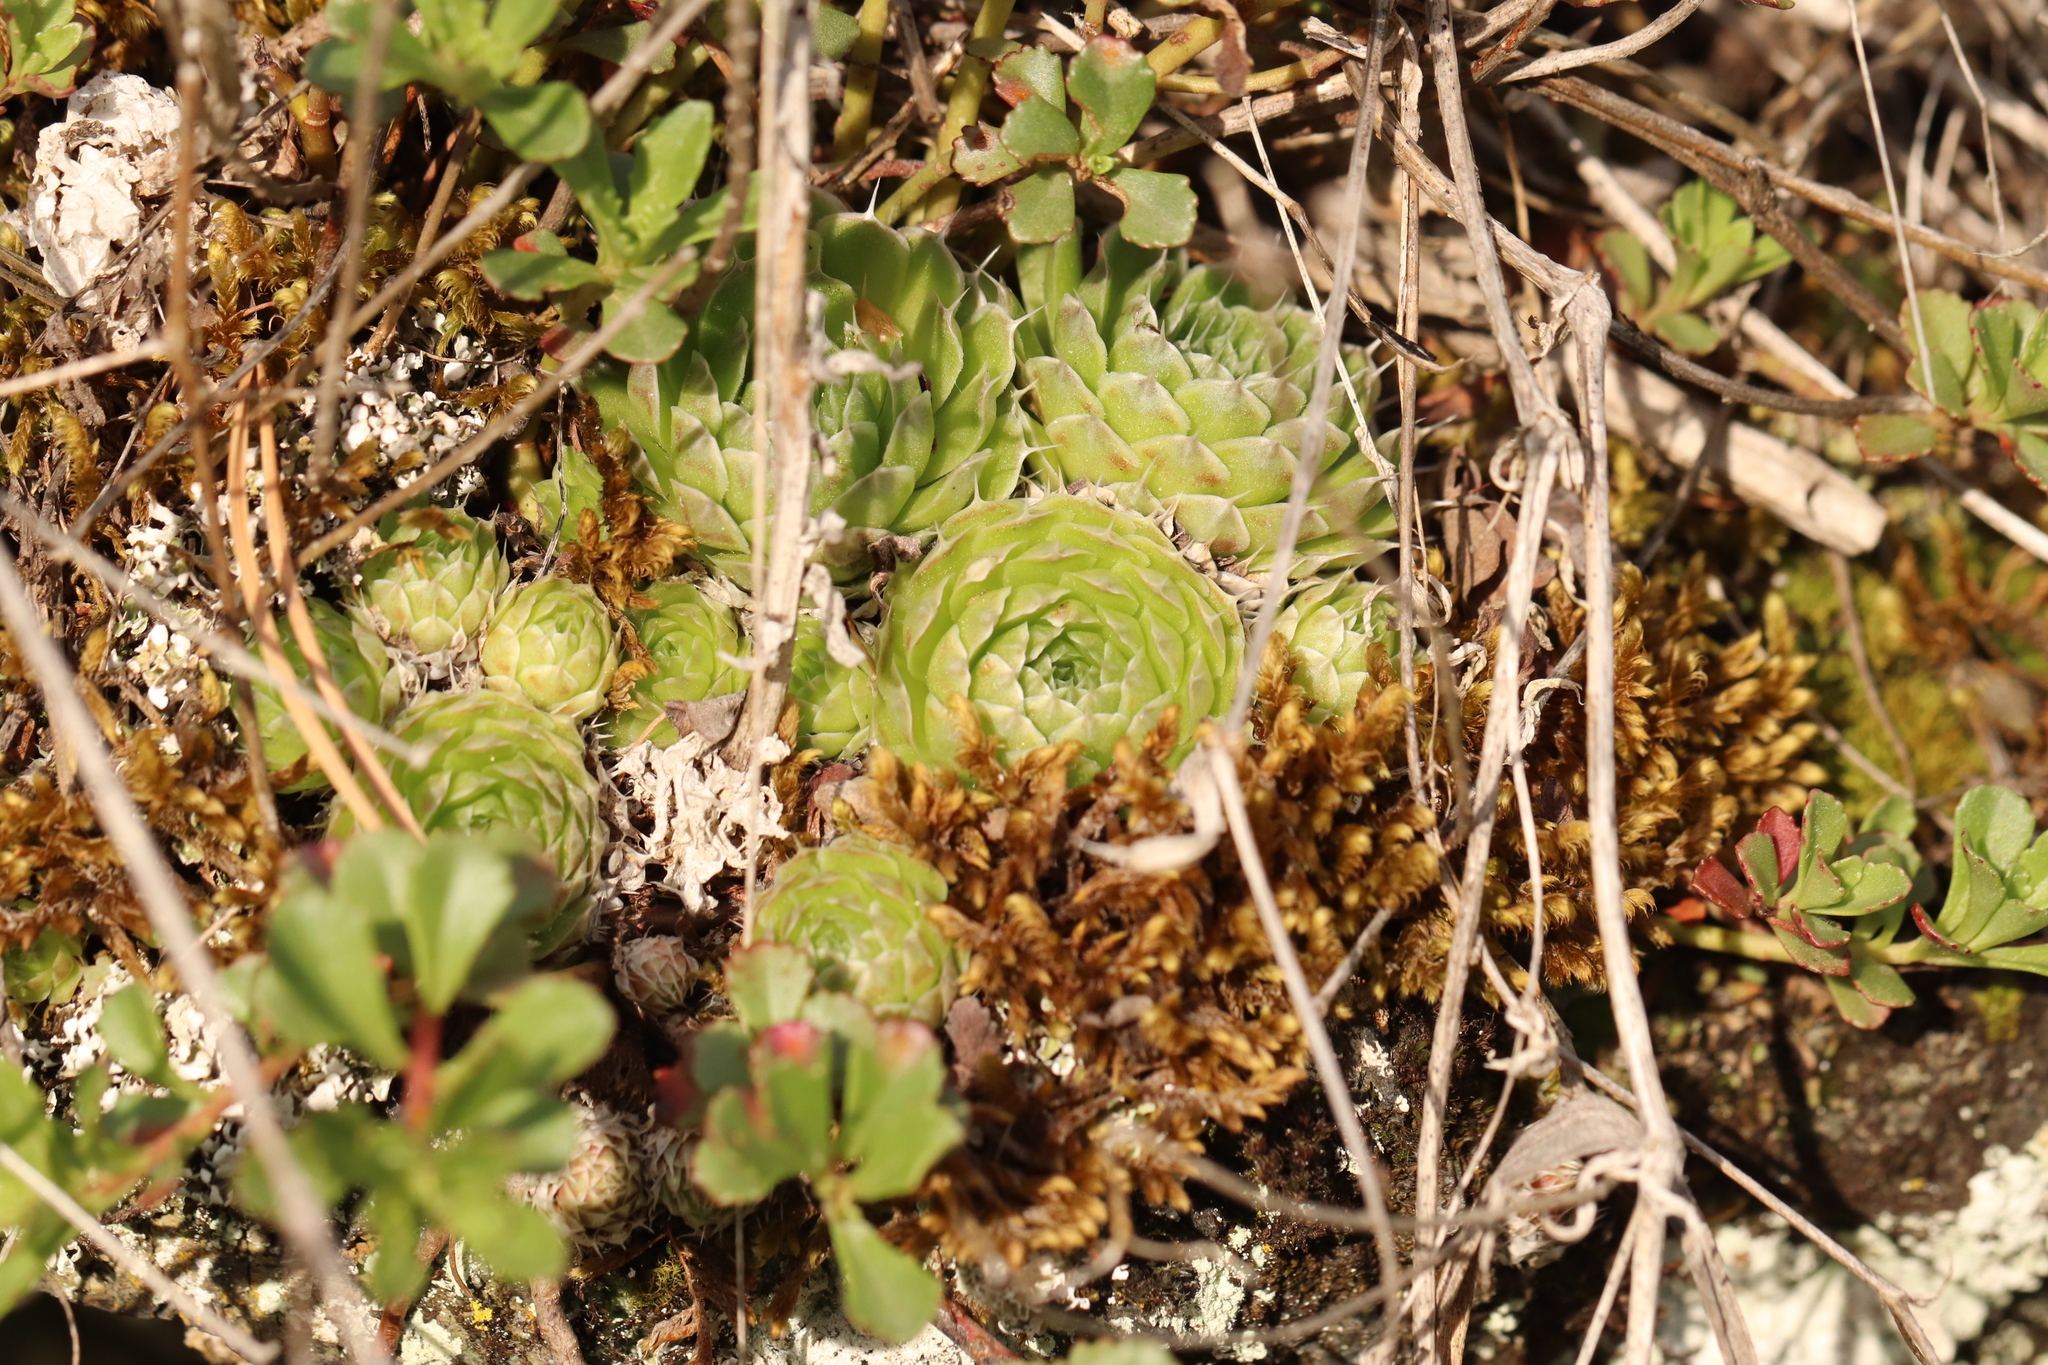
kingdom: Plantae
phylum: Tracheophyta
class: Magnoliopsida
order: Saxifragales
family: Crassulaceae
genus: Orostachys
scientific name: Orostachys spinosa
